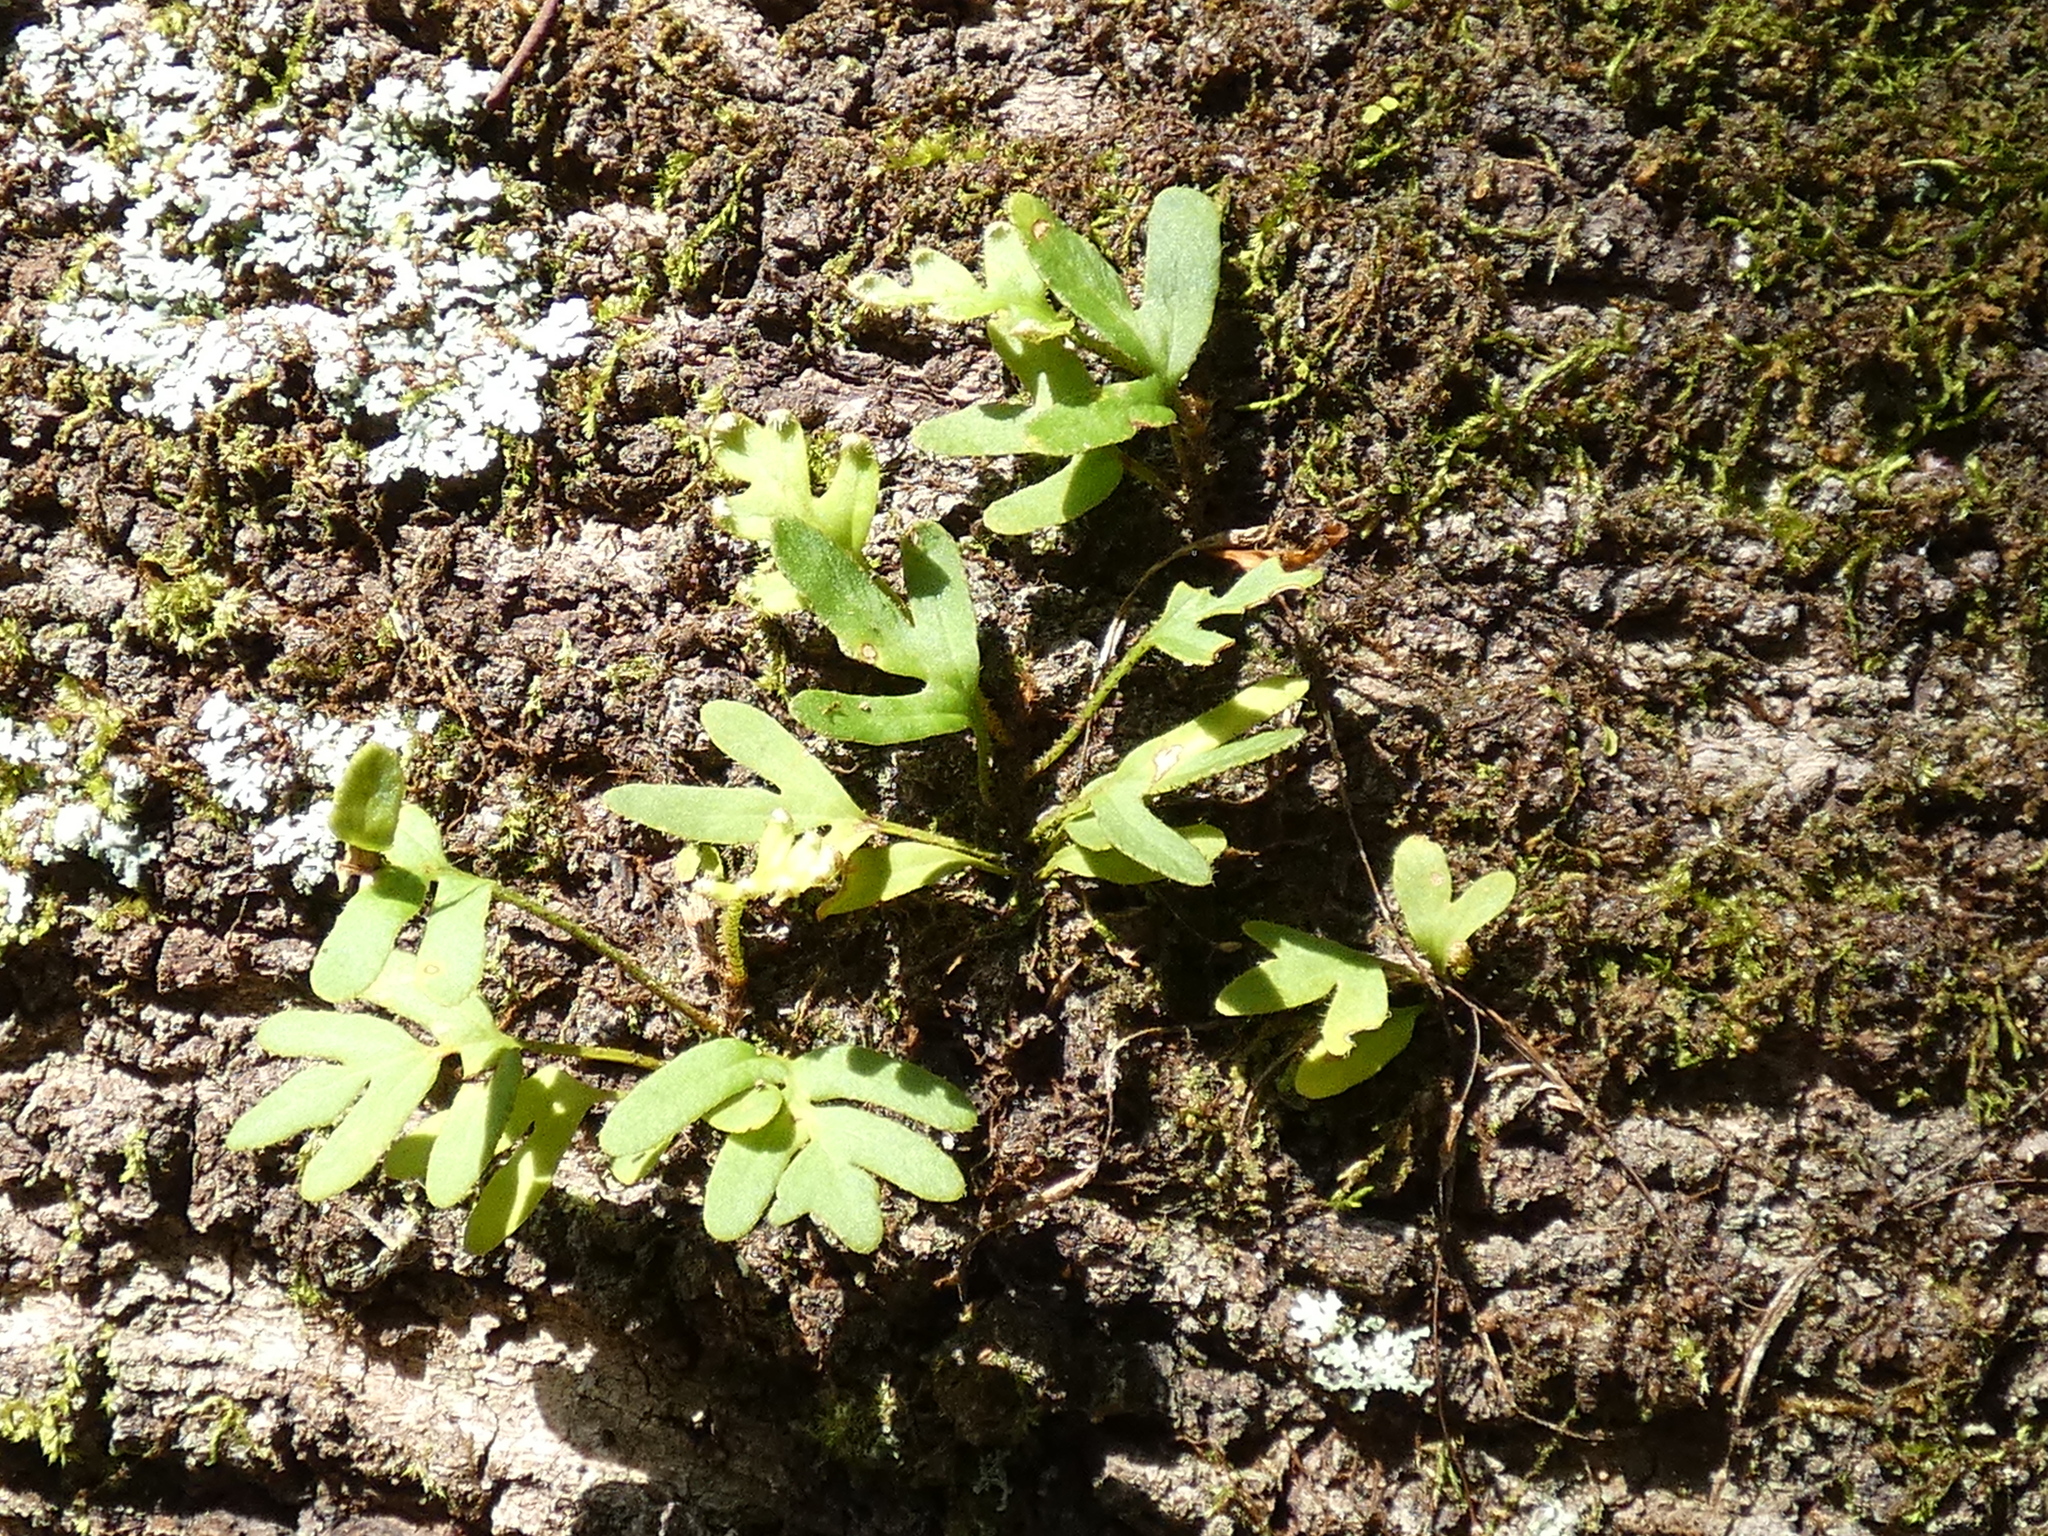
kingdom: Plantae
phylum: Tracheophyta
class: Polypodiopsida
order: Polypodiales
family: Polypodiaceae
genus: Pleopeltis
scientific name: Pleopeltis michauxiana
